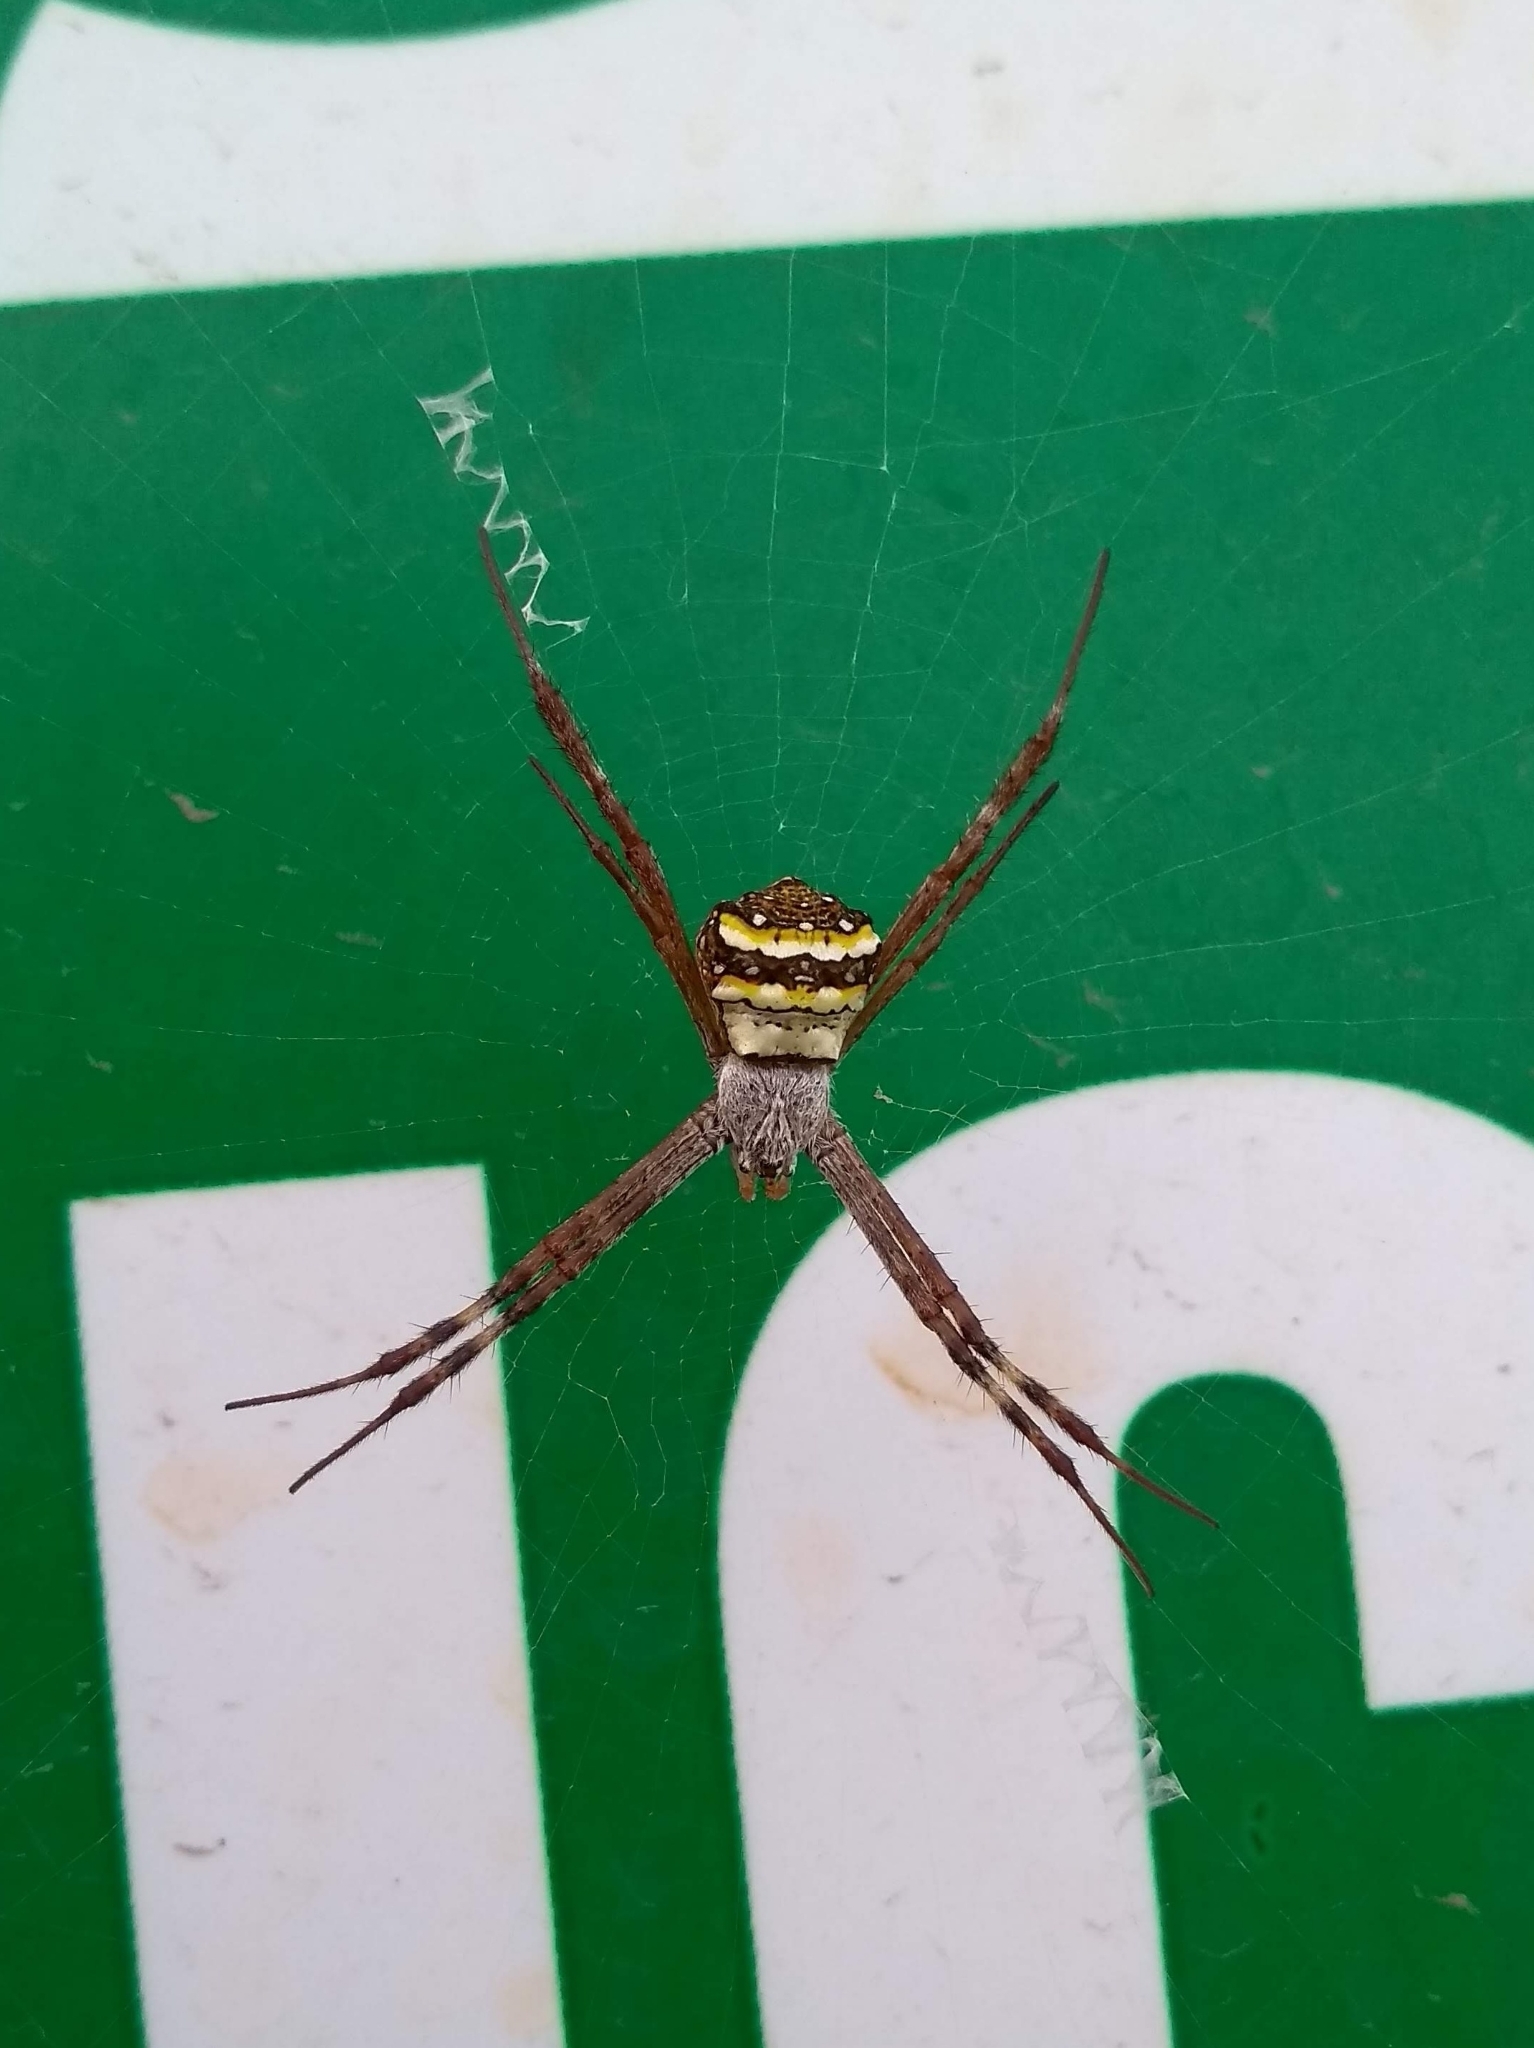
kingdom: Animalia
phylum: Arthropoda
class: Arachnida
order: Araneae
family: Araneidae
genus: Argiope
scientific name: Argiope anasuja
